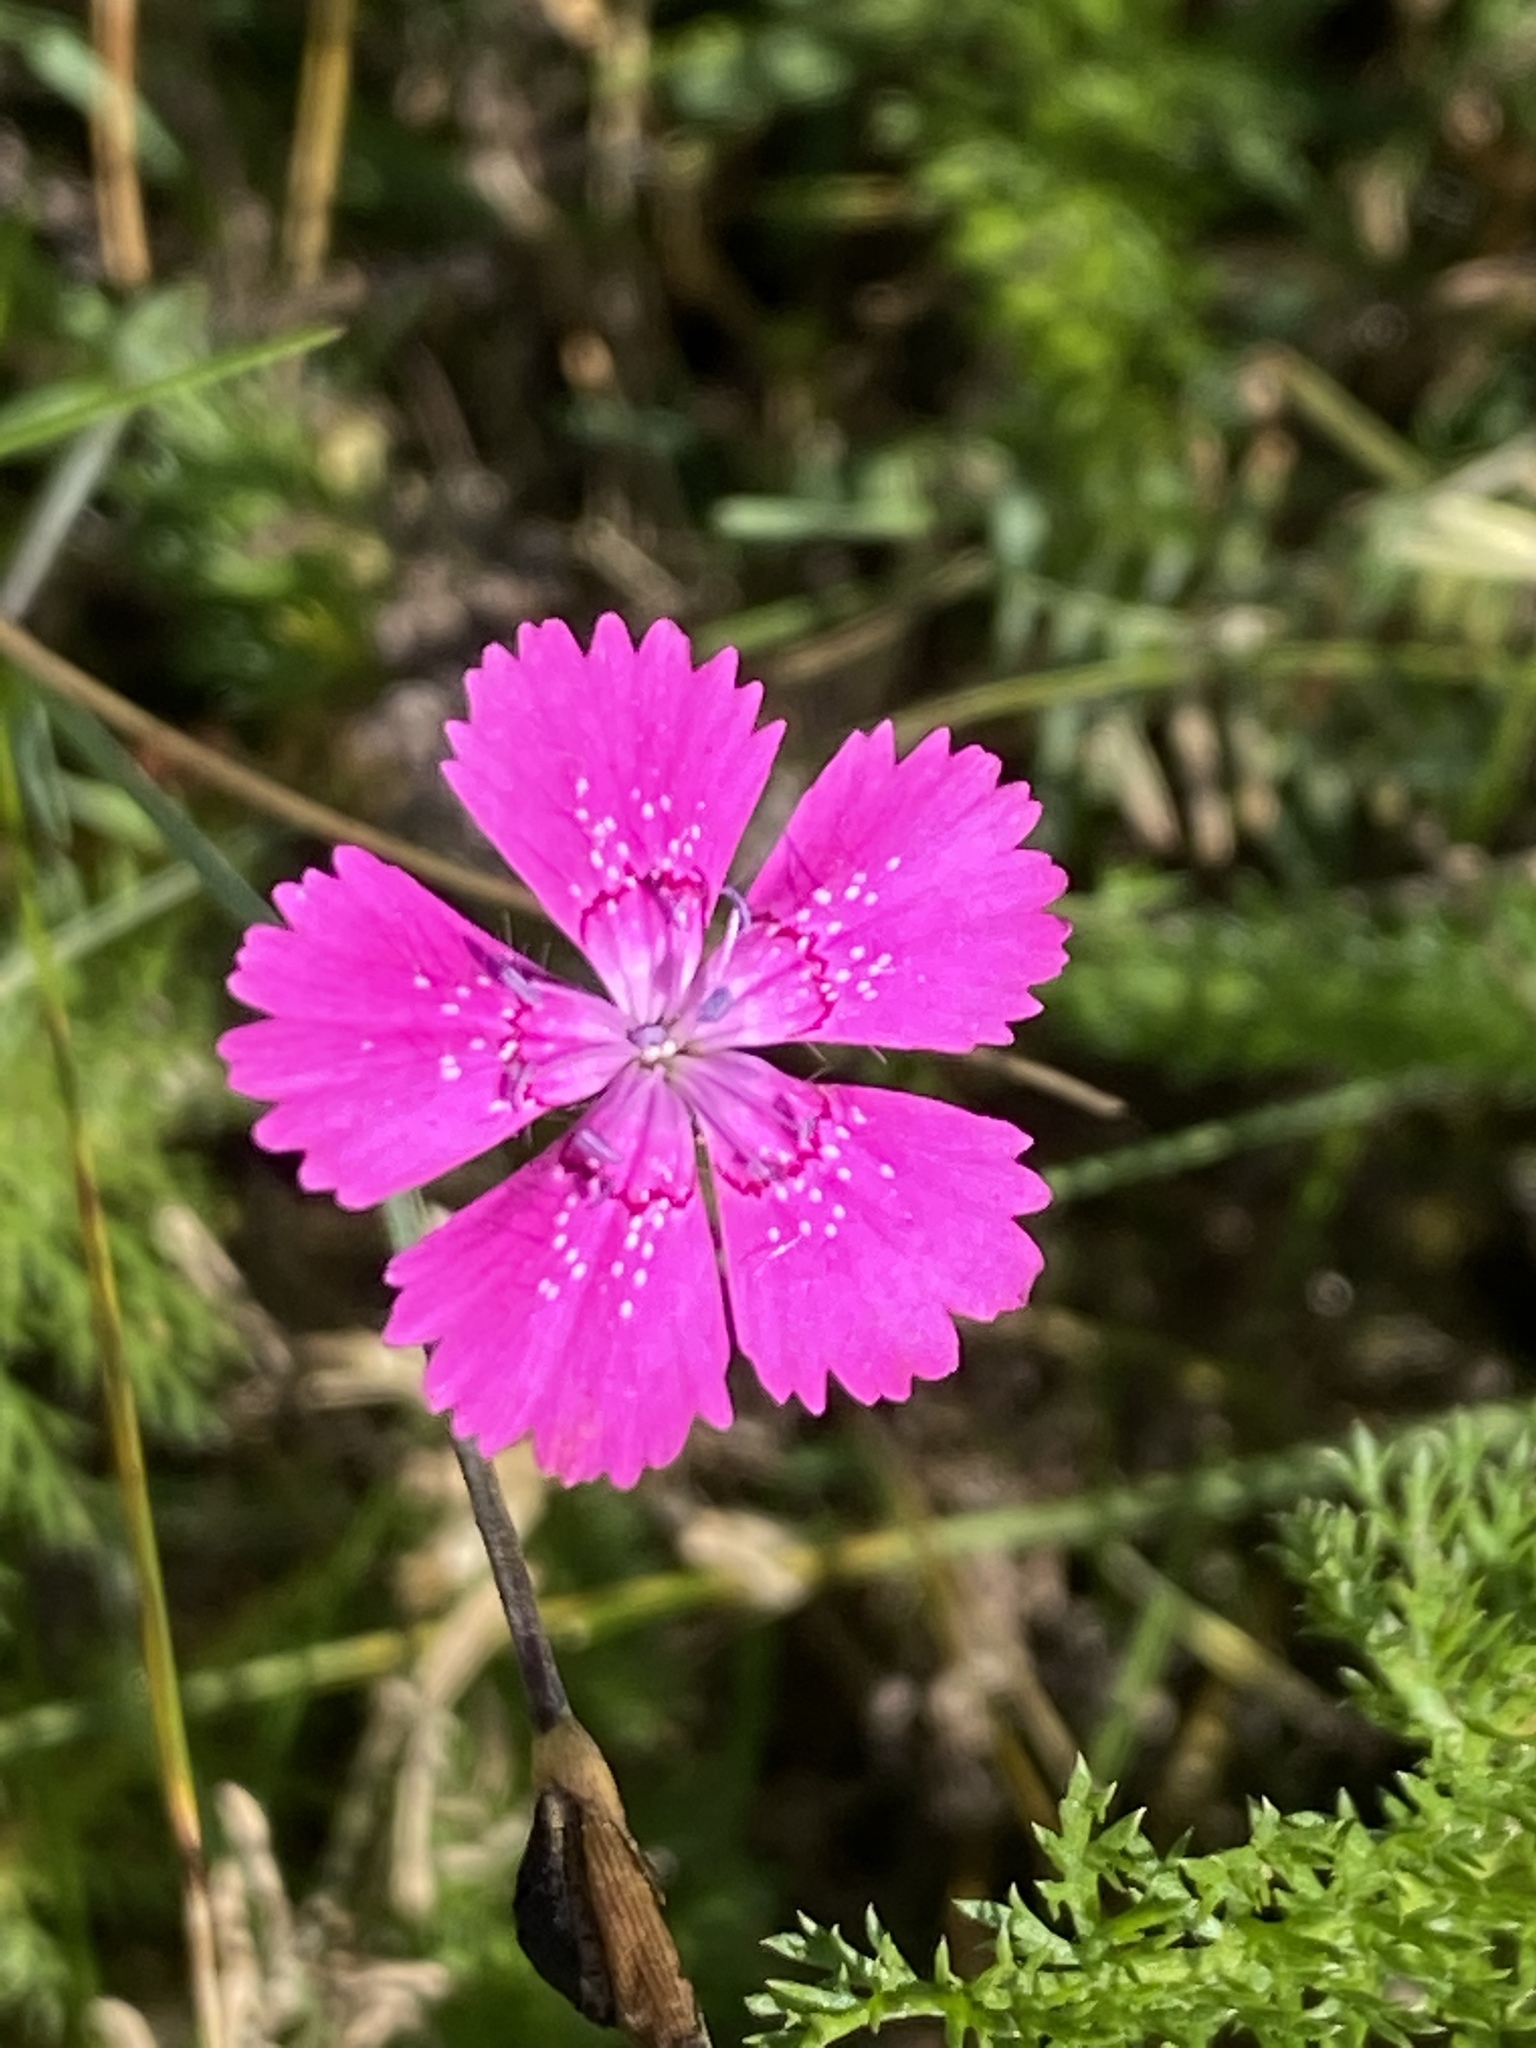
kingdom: Plantae
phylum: Tracheophyta
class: Magnoliopsida
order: Caryophyllales
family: Caryophyllaceae
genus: Dianthus
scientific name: Dianthus deltoides
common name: Maiden pink
